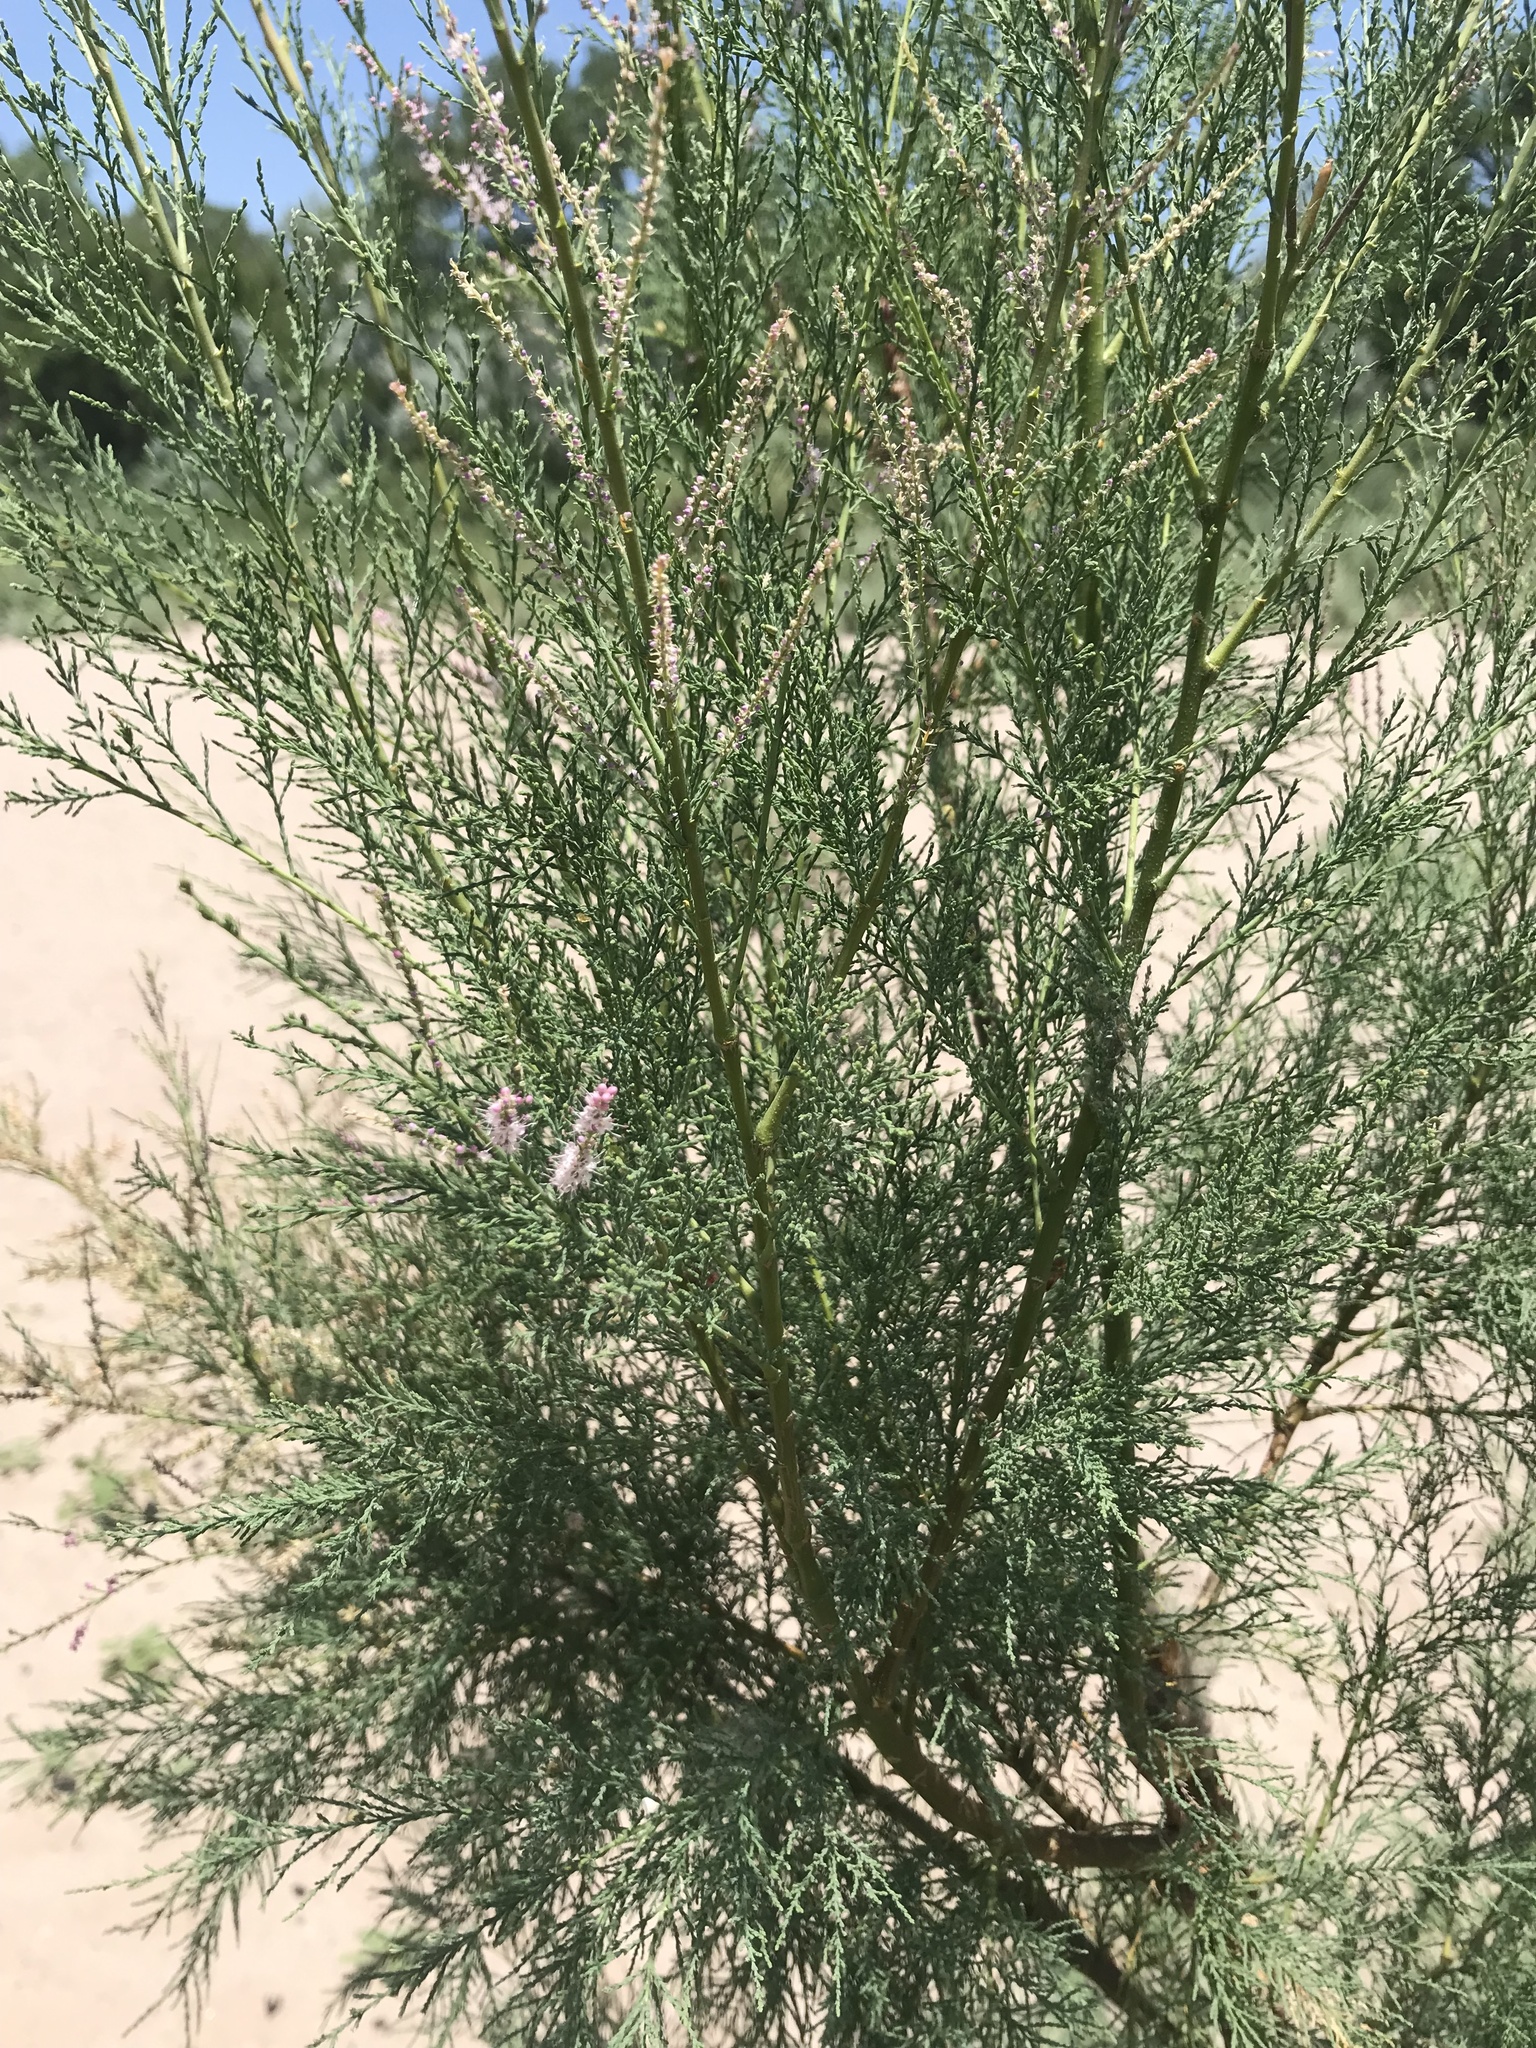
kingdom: Plantae
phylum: Tracheophyta
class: Magnoliopsida
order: Caryophyllales
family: Tamaricaceae
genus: Tamarix
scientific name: Tamarix ramosissima
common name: Pink tamarisk
